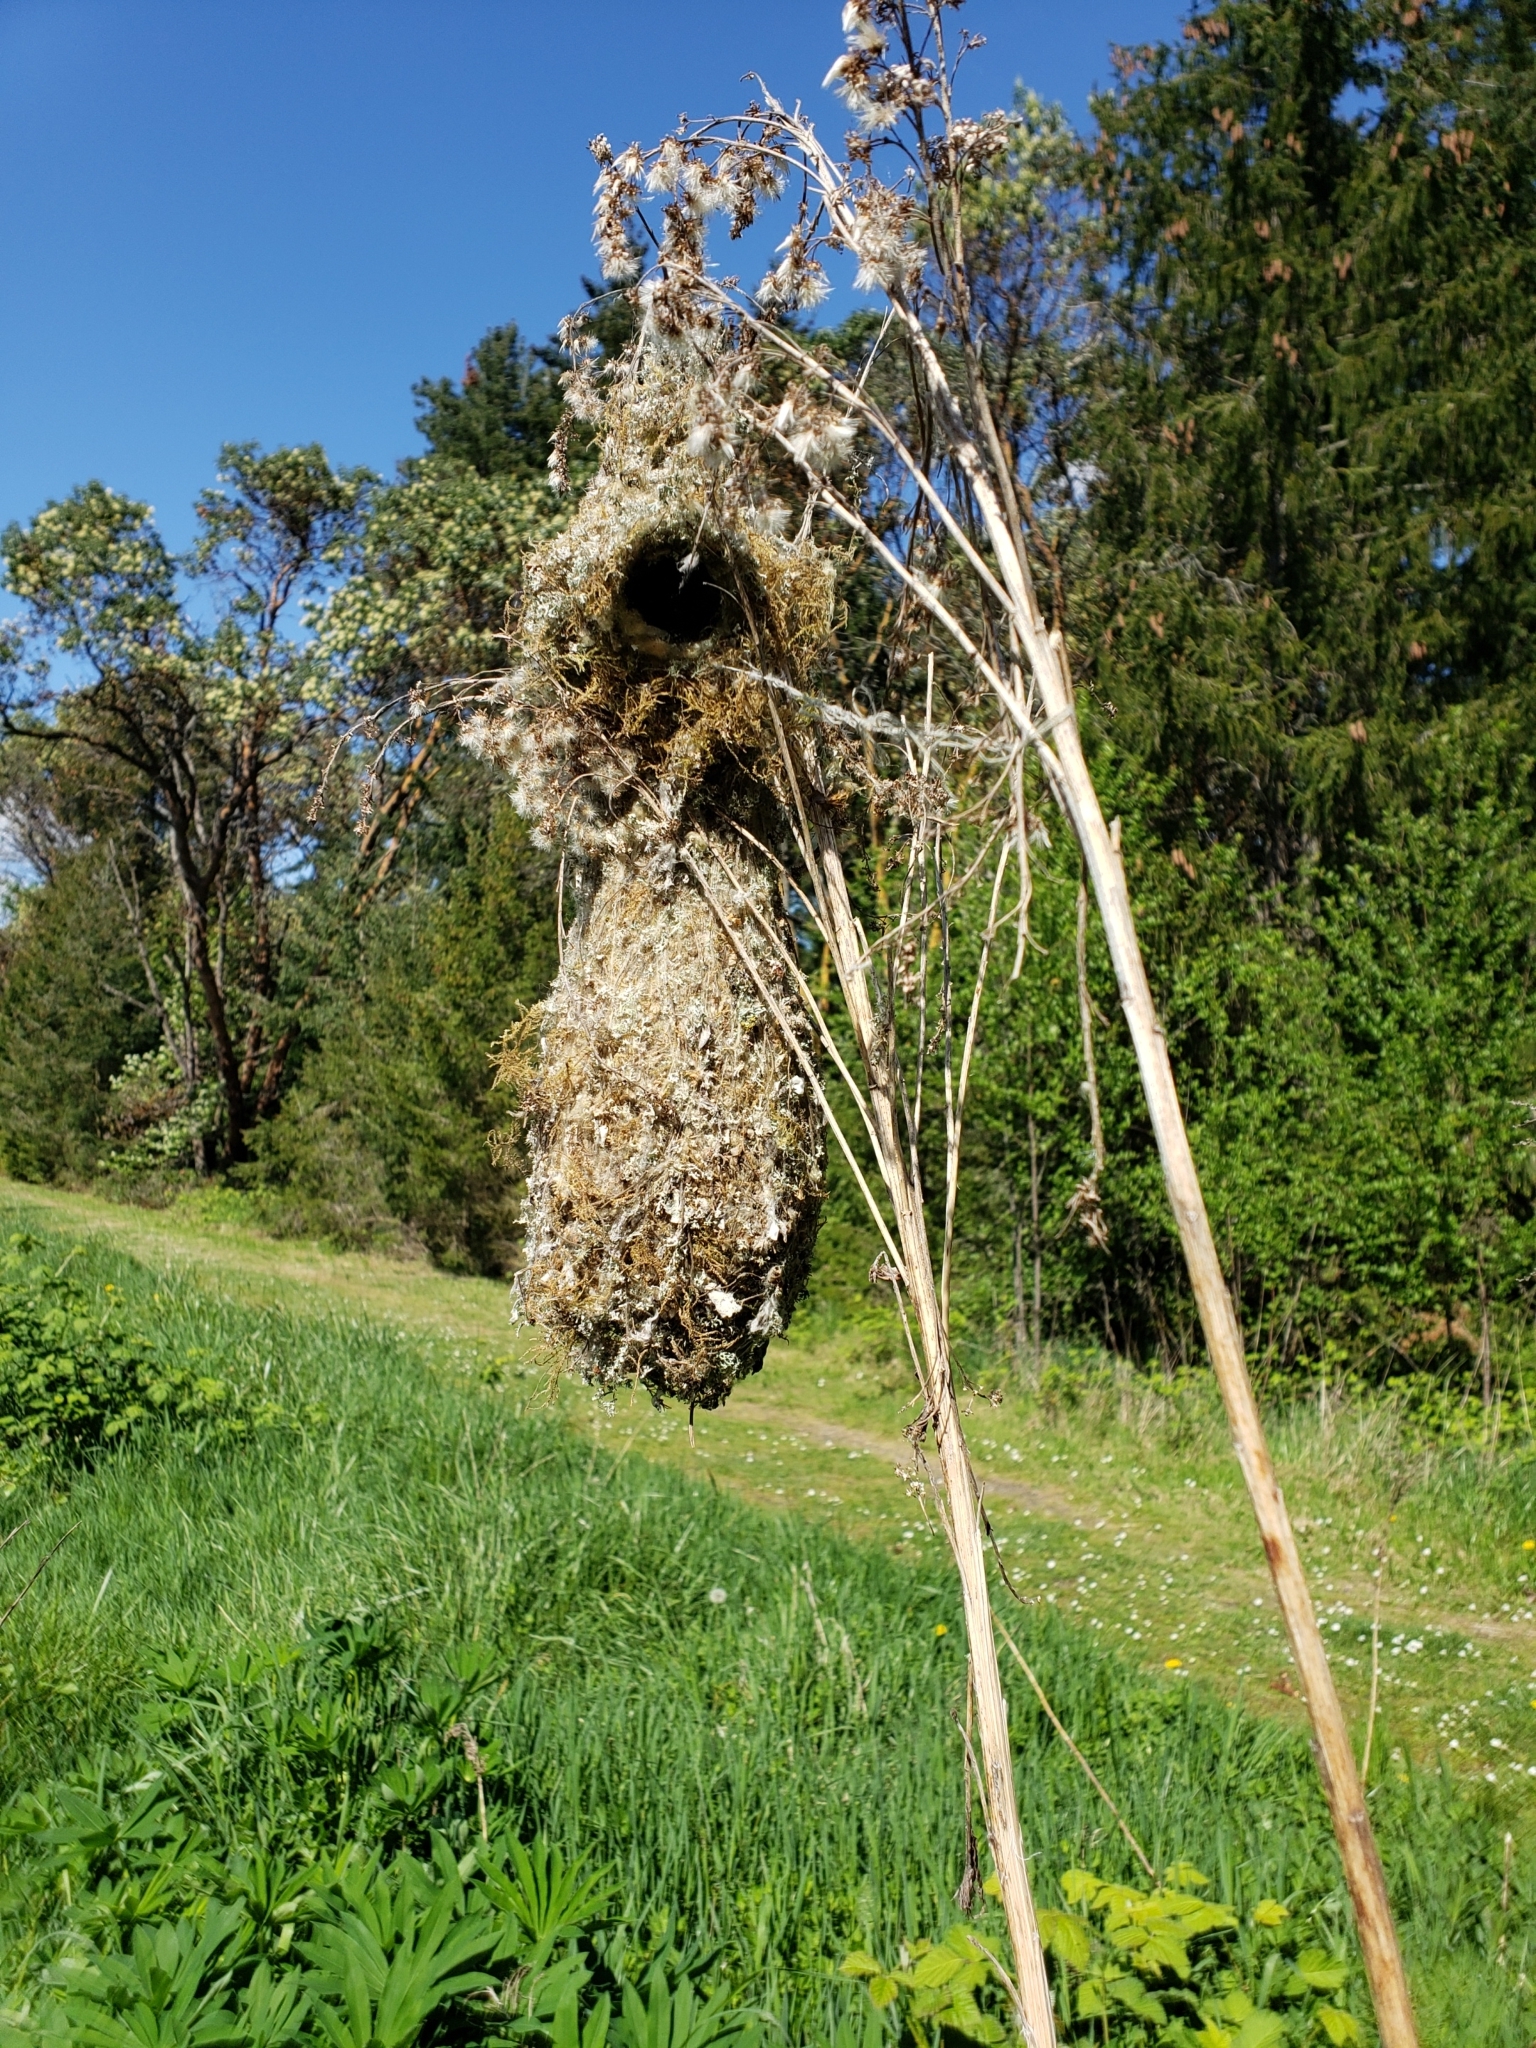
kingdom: Animalia
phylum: Chordata
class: Aves
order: Passeriformes
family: Aegithalidae
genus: Psaltriparus
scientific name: Psaltriparus minimus
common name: American bushtit
